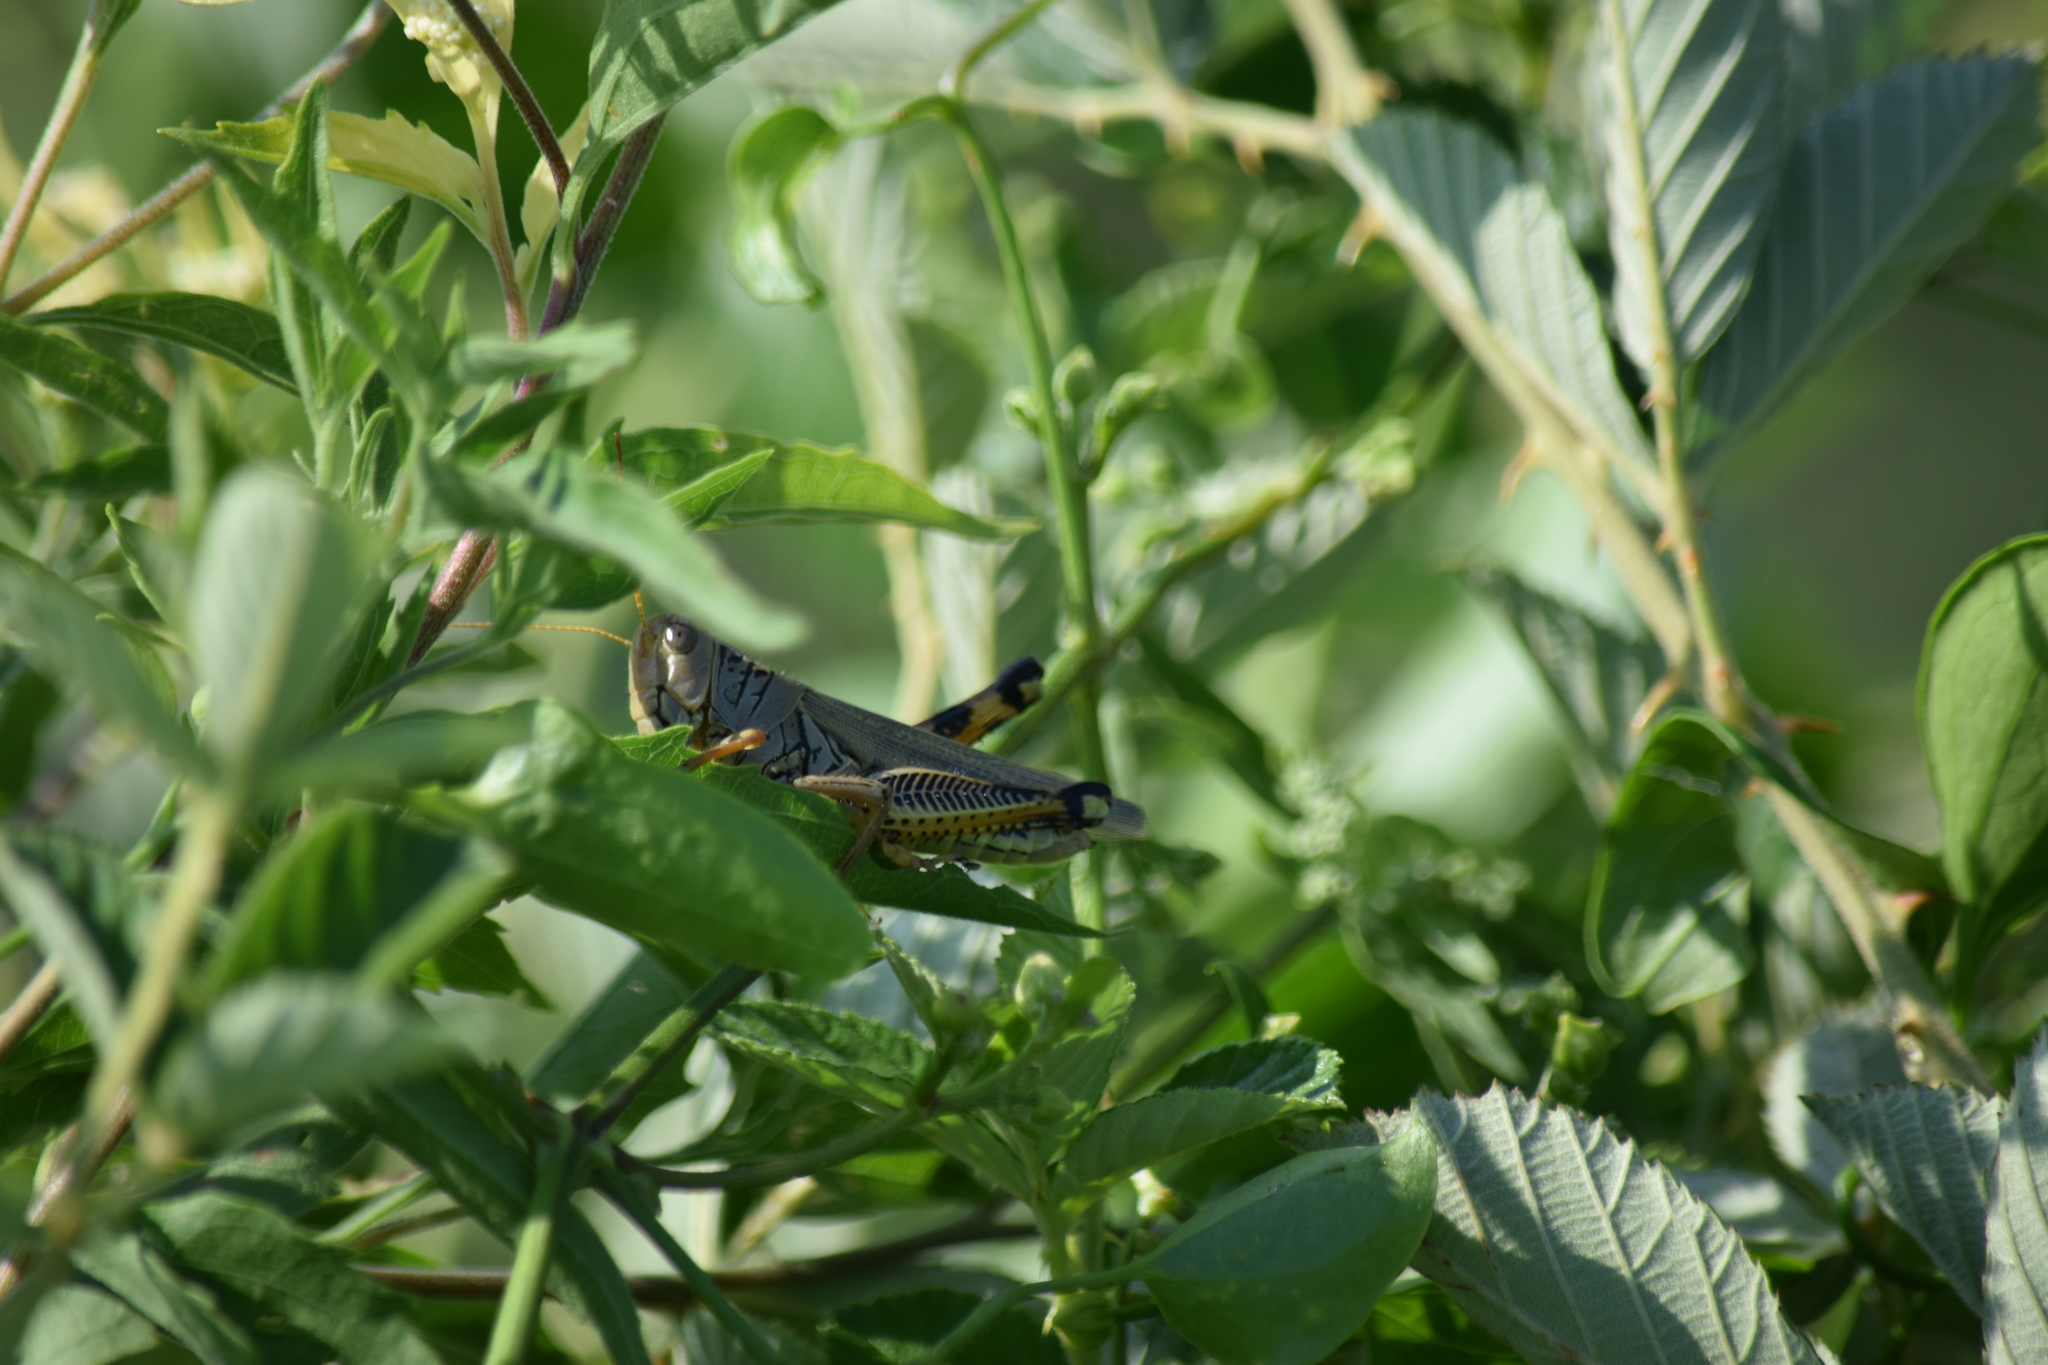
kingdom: Animalia
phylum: Arthropoda
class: Insecta
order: Orthoptera
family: Acrididae
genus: Melanoplus
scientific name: Melanoplus differentialis
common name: Differential grasshopper
